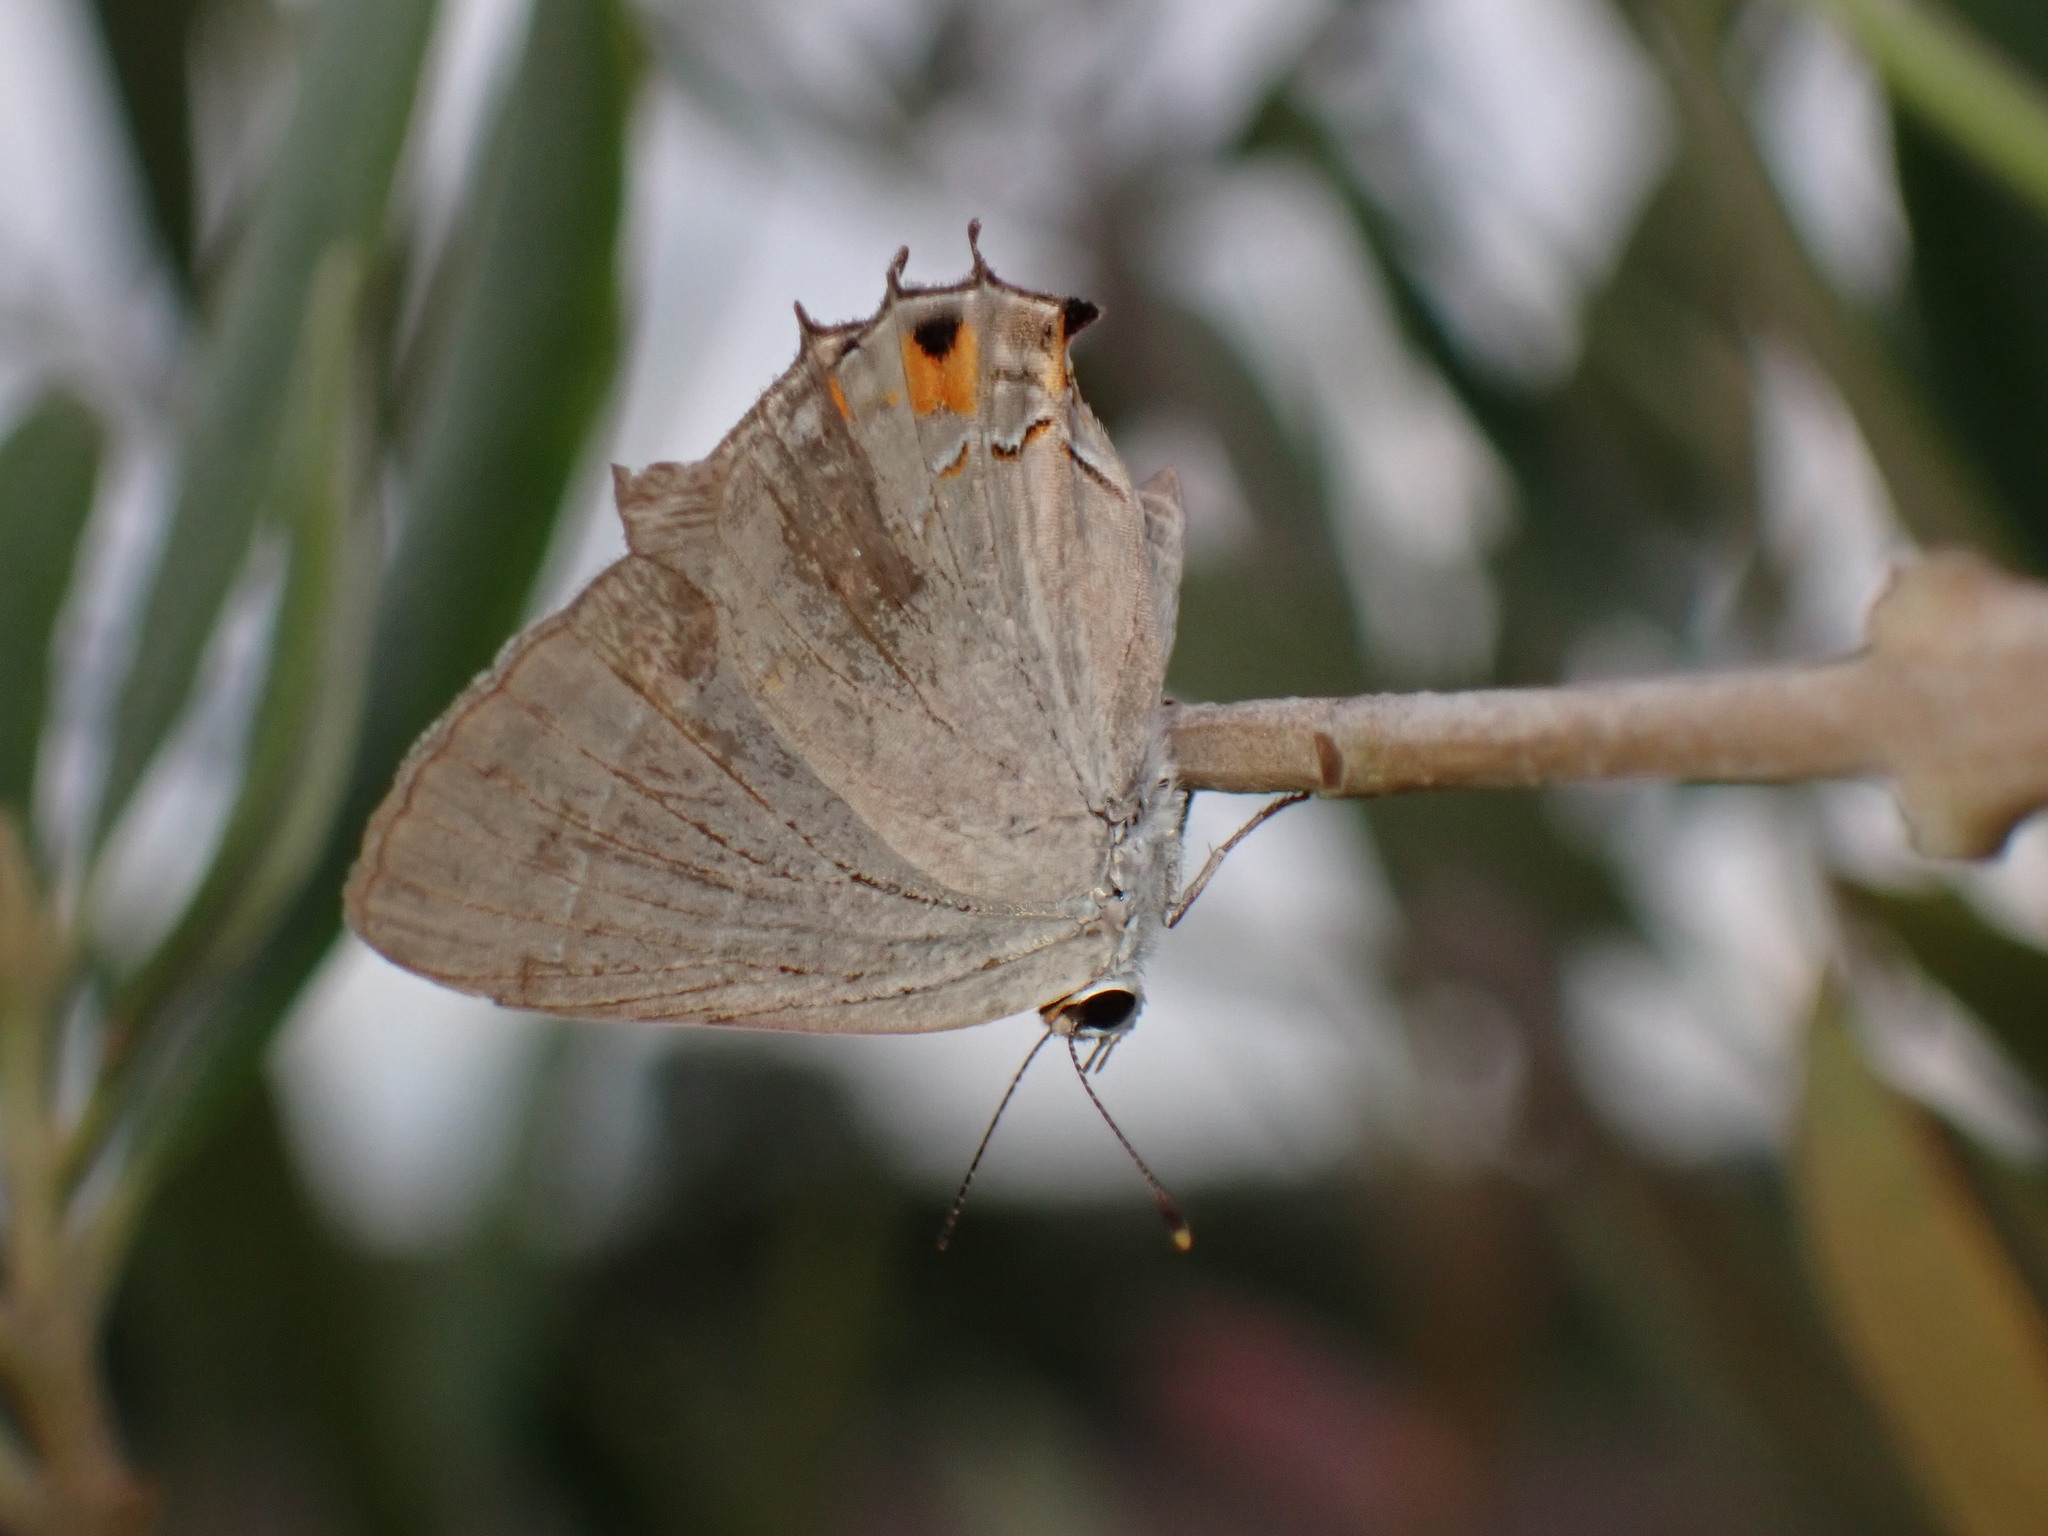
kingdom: Animalia
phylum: Arthropoda
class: Insecta
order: Lepidoptera
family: Lycaenidae
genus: Strymon
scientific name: Strymon melinus
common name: Gray hairstreak
